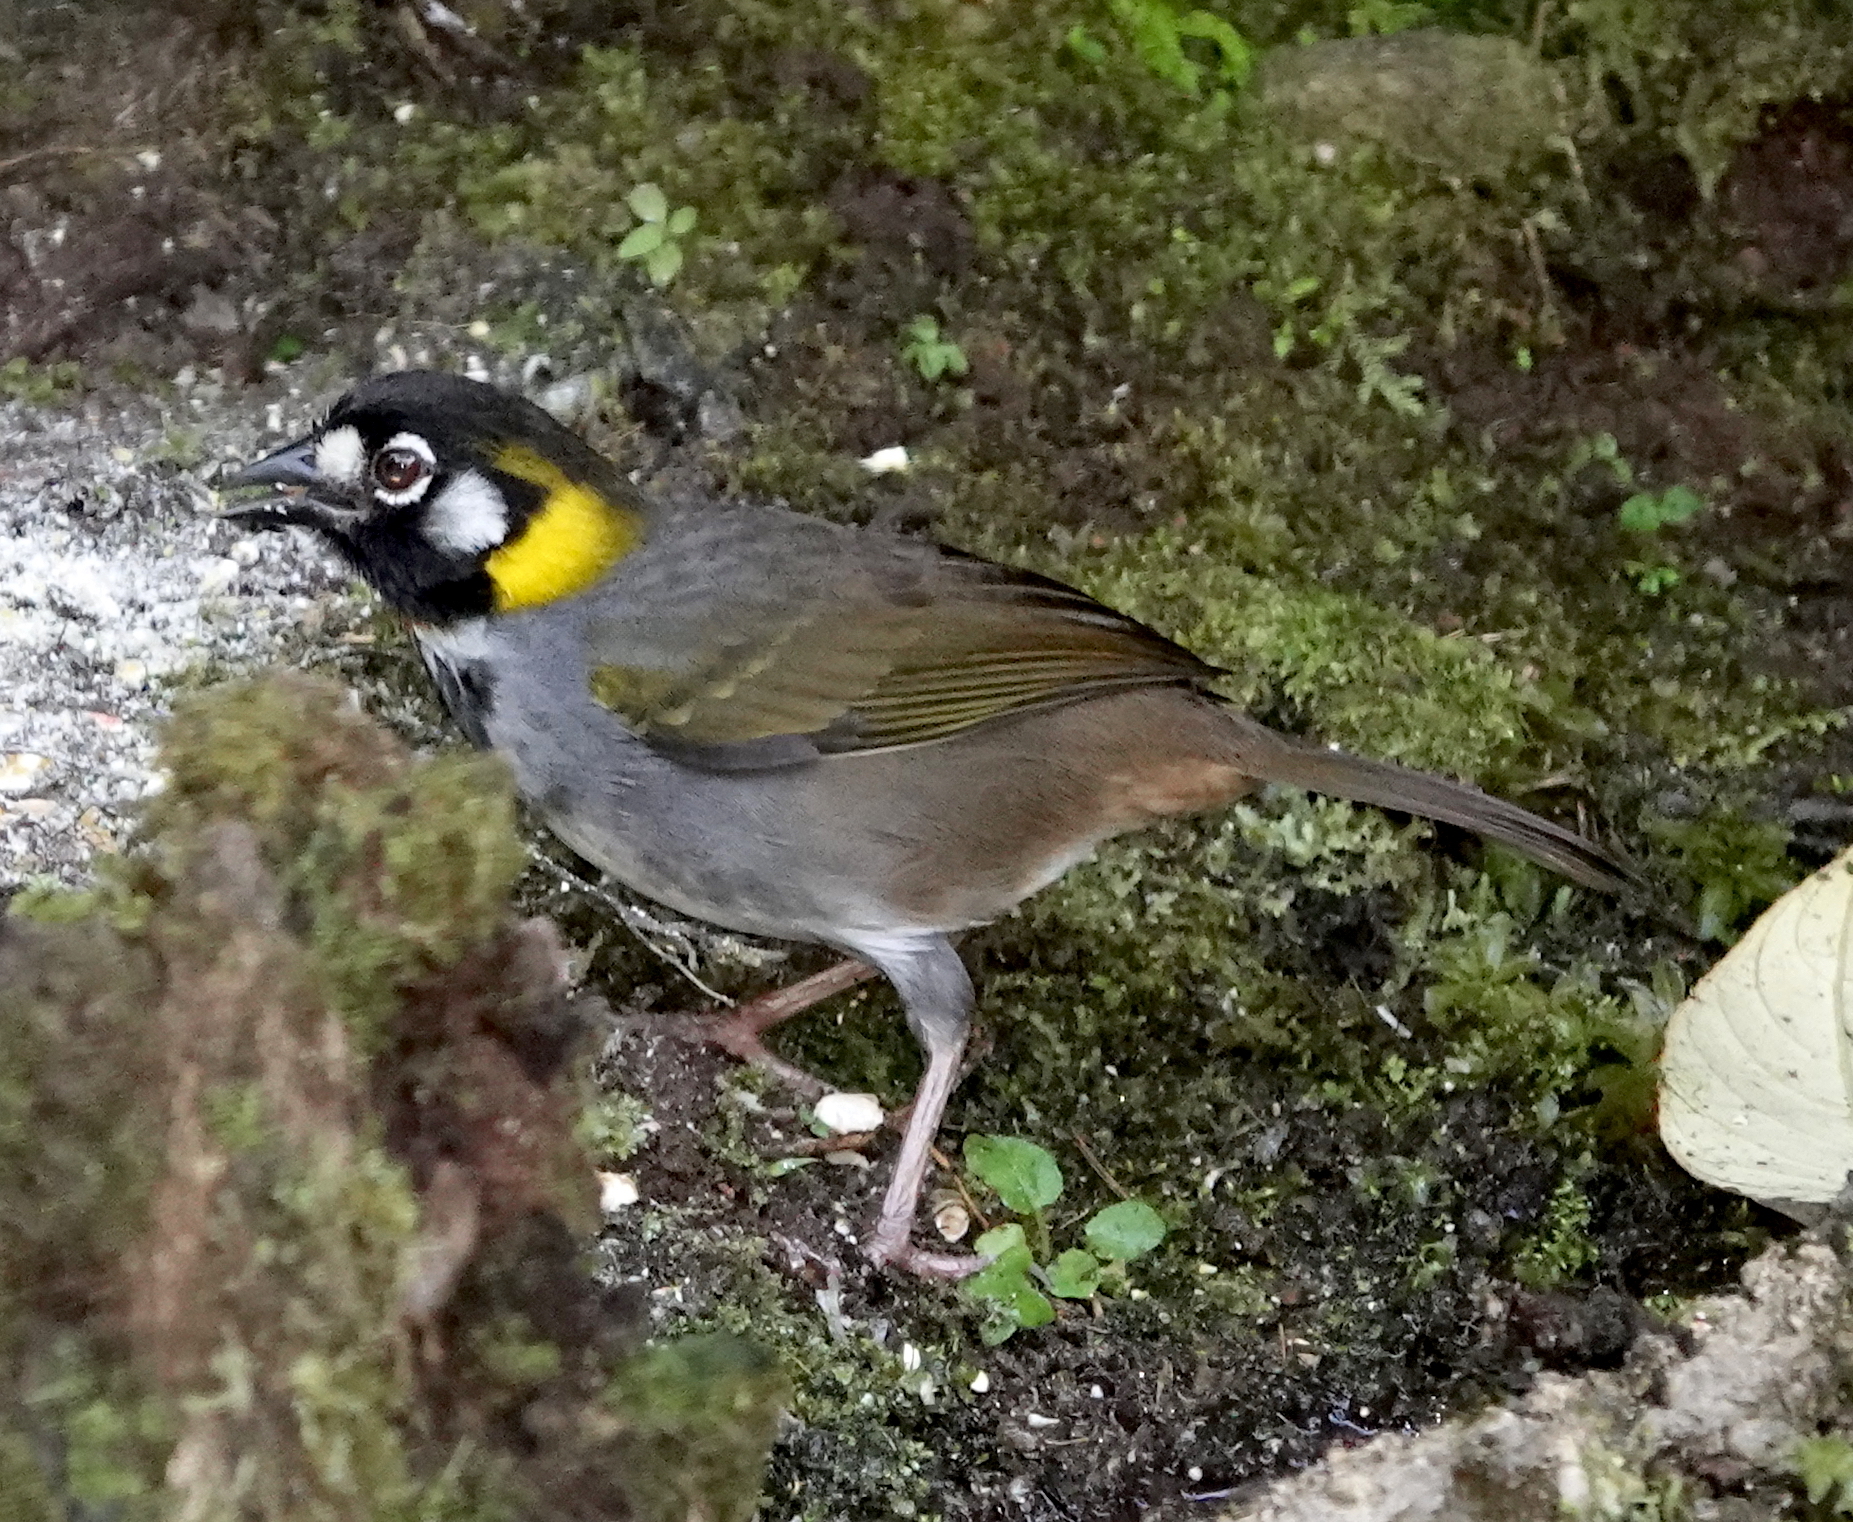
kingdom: Animalia
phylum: Chordata
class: Aves
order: Passeriformes
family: Passerellidae
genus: Melozone
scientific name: Melozone leucotis
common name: White-eared ground-sparrow
